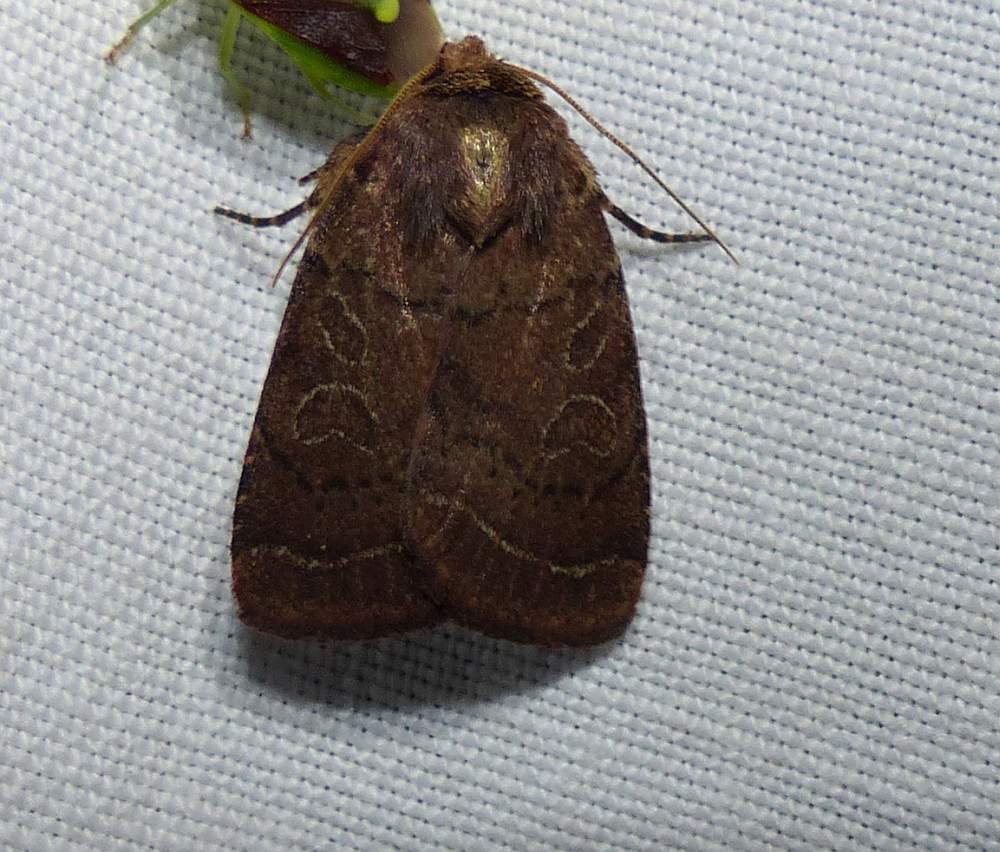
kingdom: Animalia
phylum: Arthropoda
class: Insecta
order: Lepidoptera
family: Noctuidae
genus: Orthodes
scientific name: Orthodes cynica
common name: Cynical quaker
